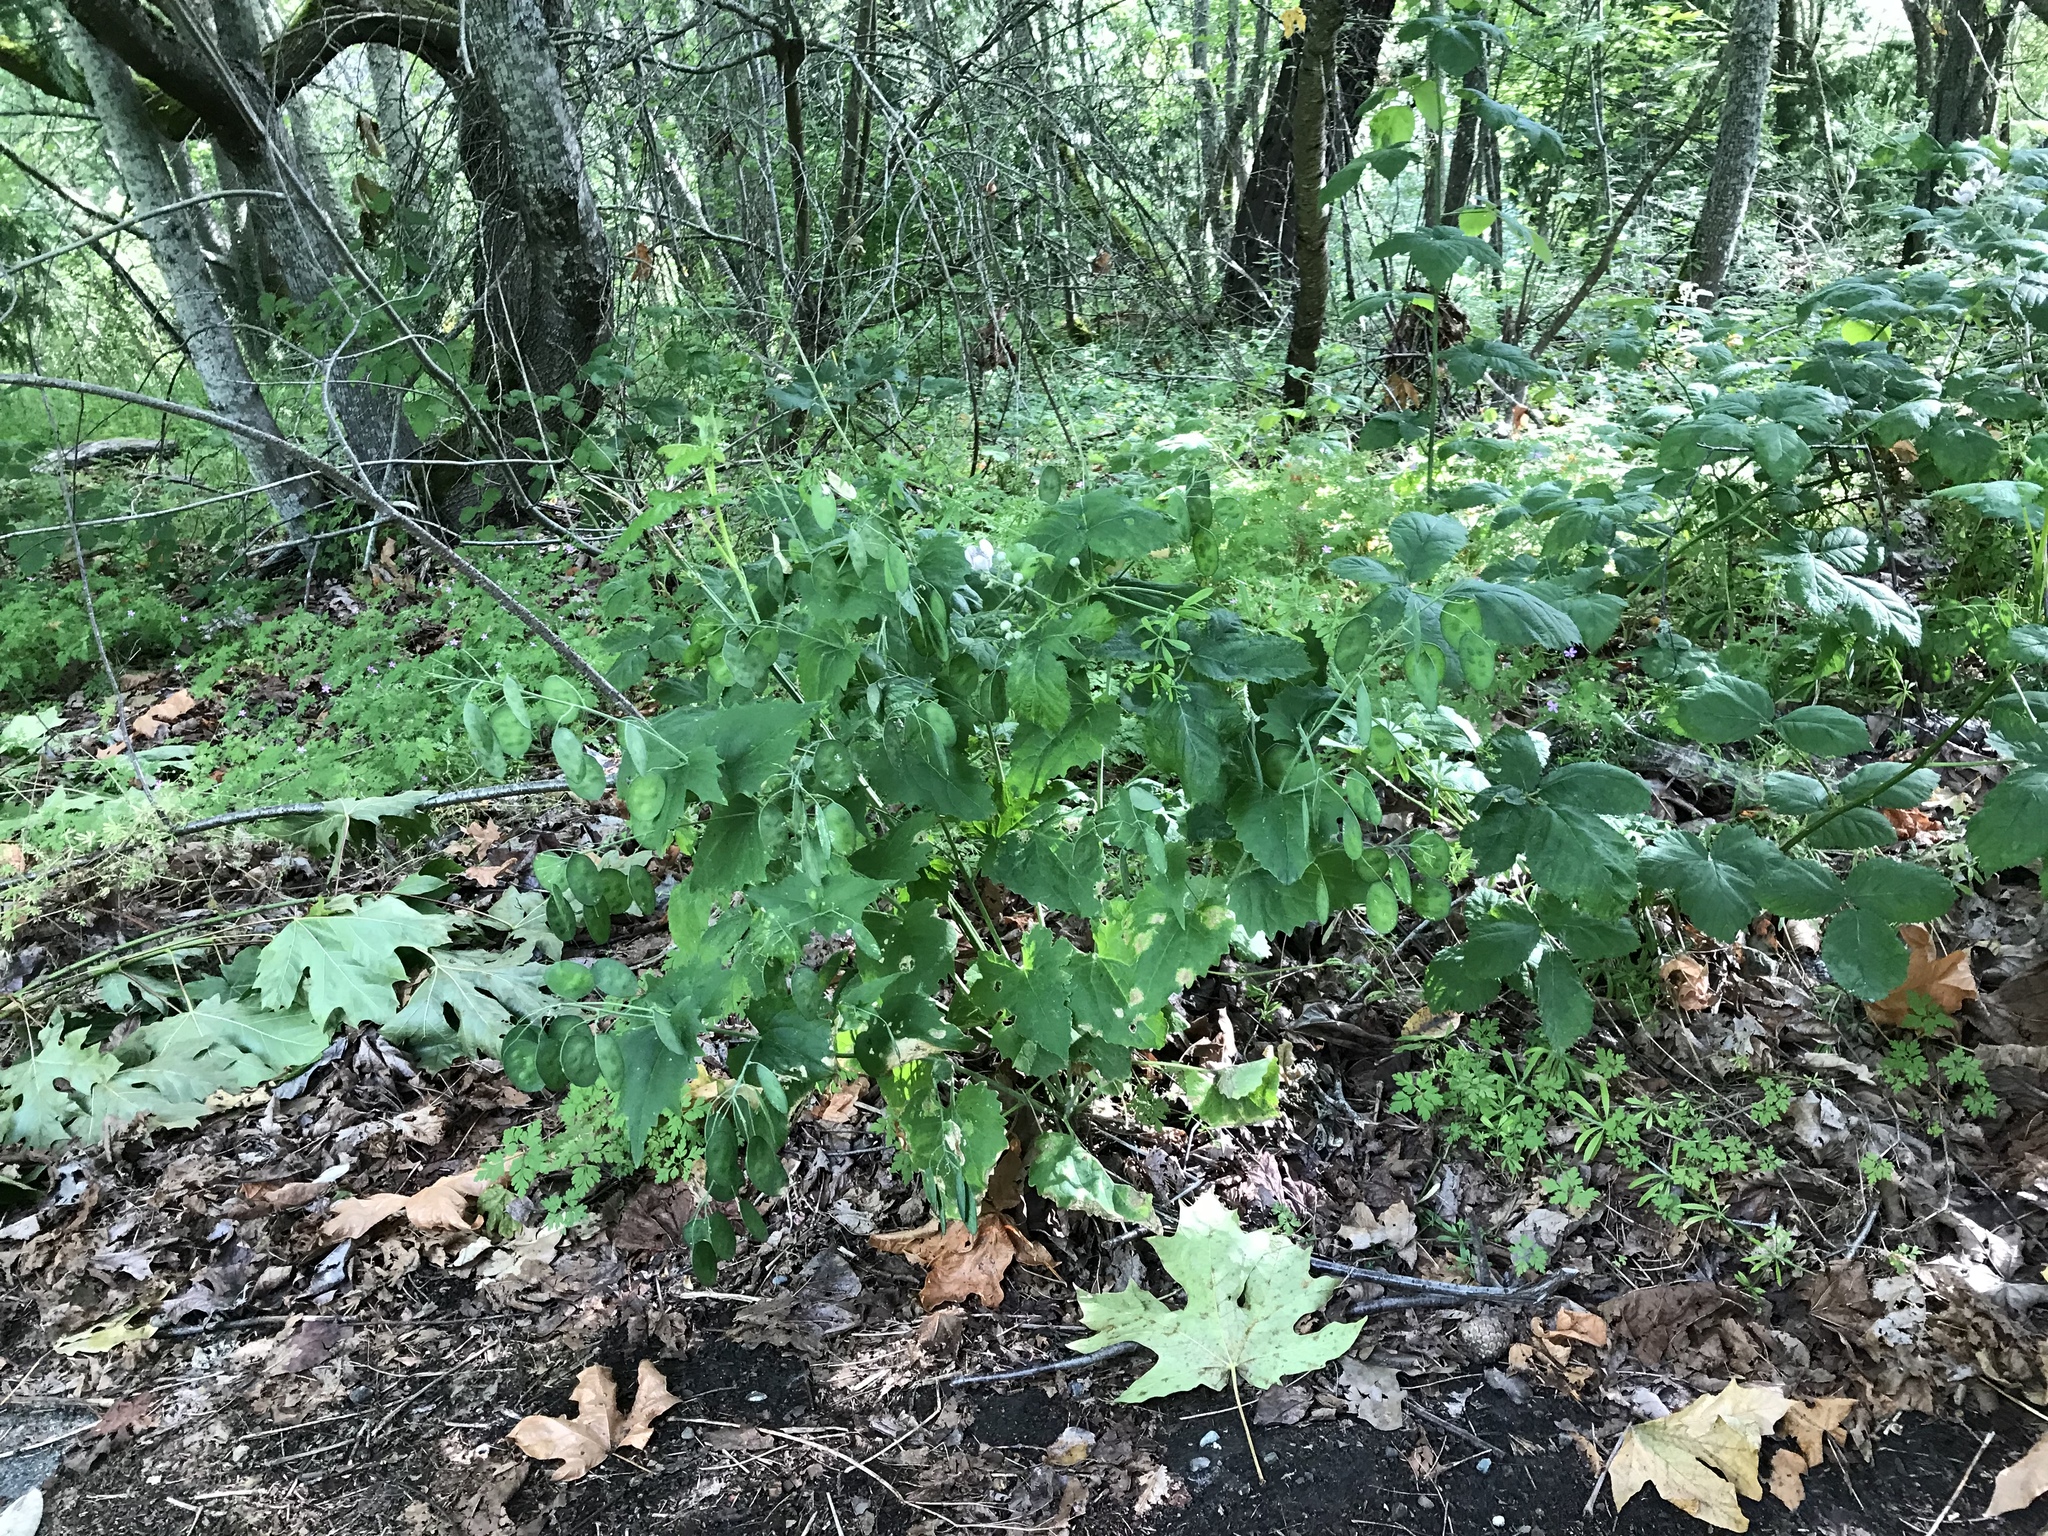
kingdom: Plantae
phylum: Tracheophyta
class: Magnoliopsida
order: Brassicales
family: Brassicaceae
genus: Lunaria
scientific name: Lunaria annua
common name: Honesty
